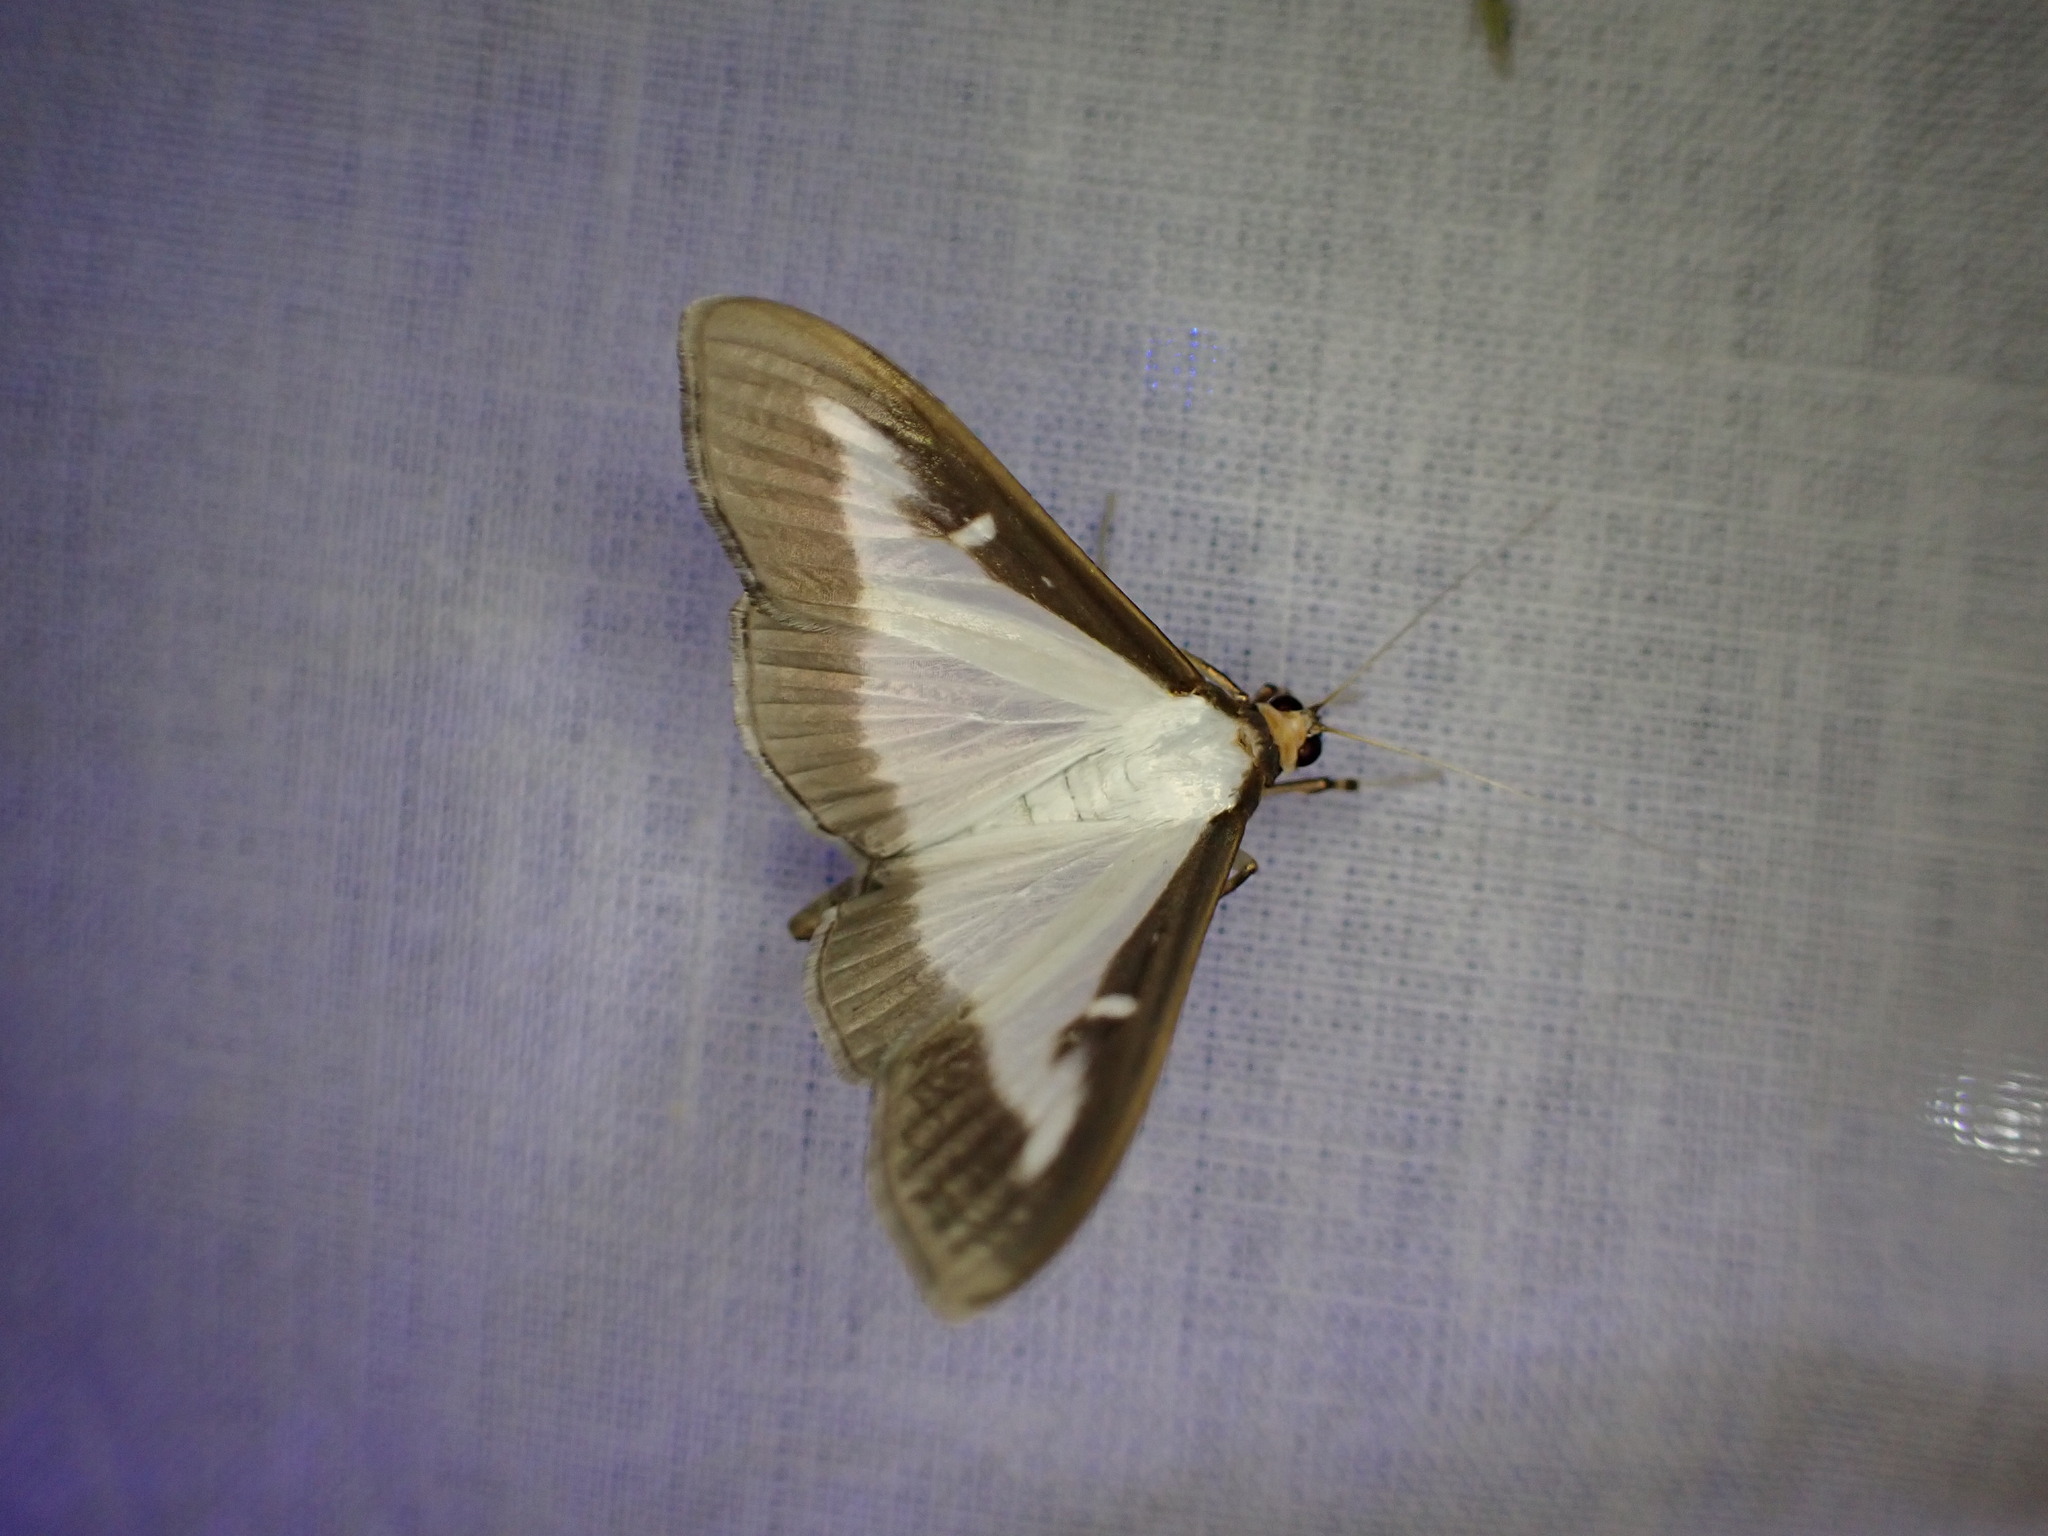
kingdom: Animalia
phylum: Arthropoda
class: Insecta
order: Lepidoptera
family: Crambidae
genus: Cydalima
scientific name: Cydalima perspectalis
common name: Box tree moth
